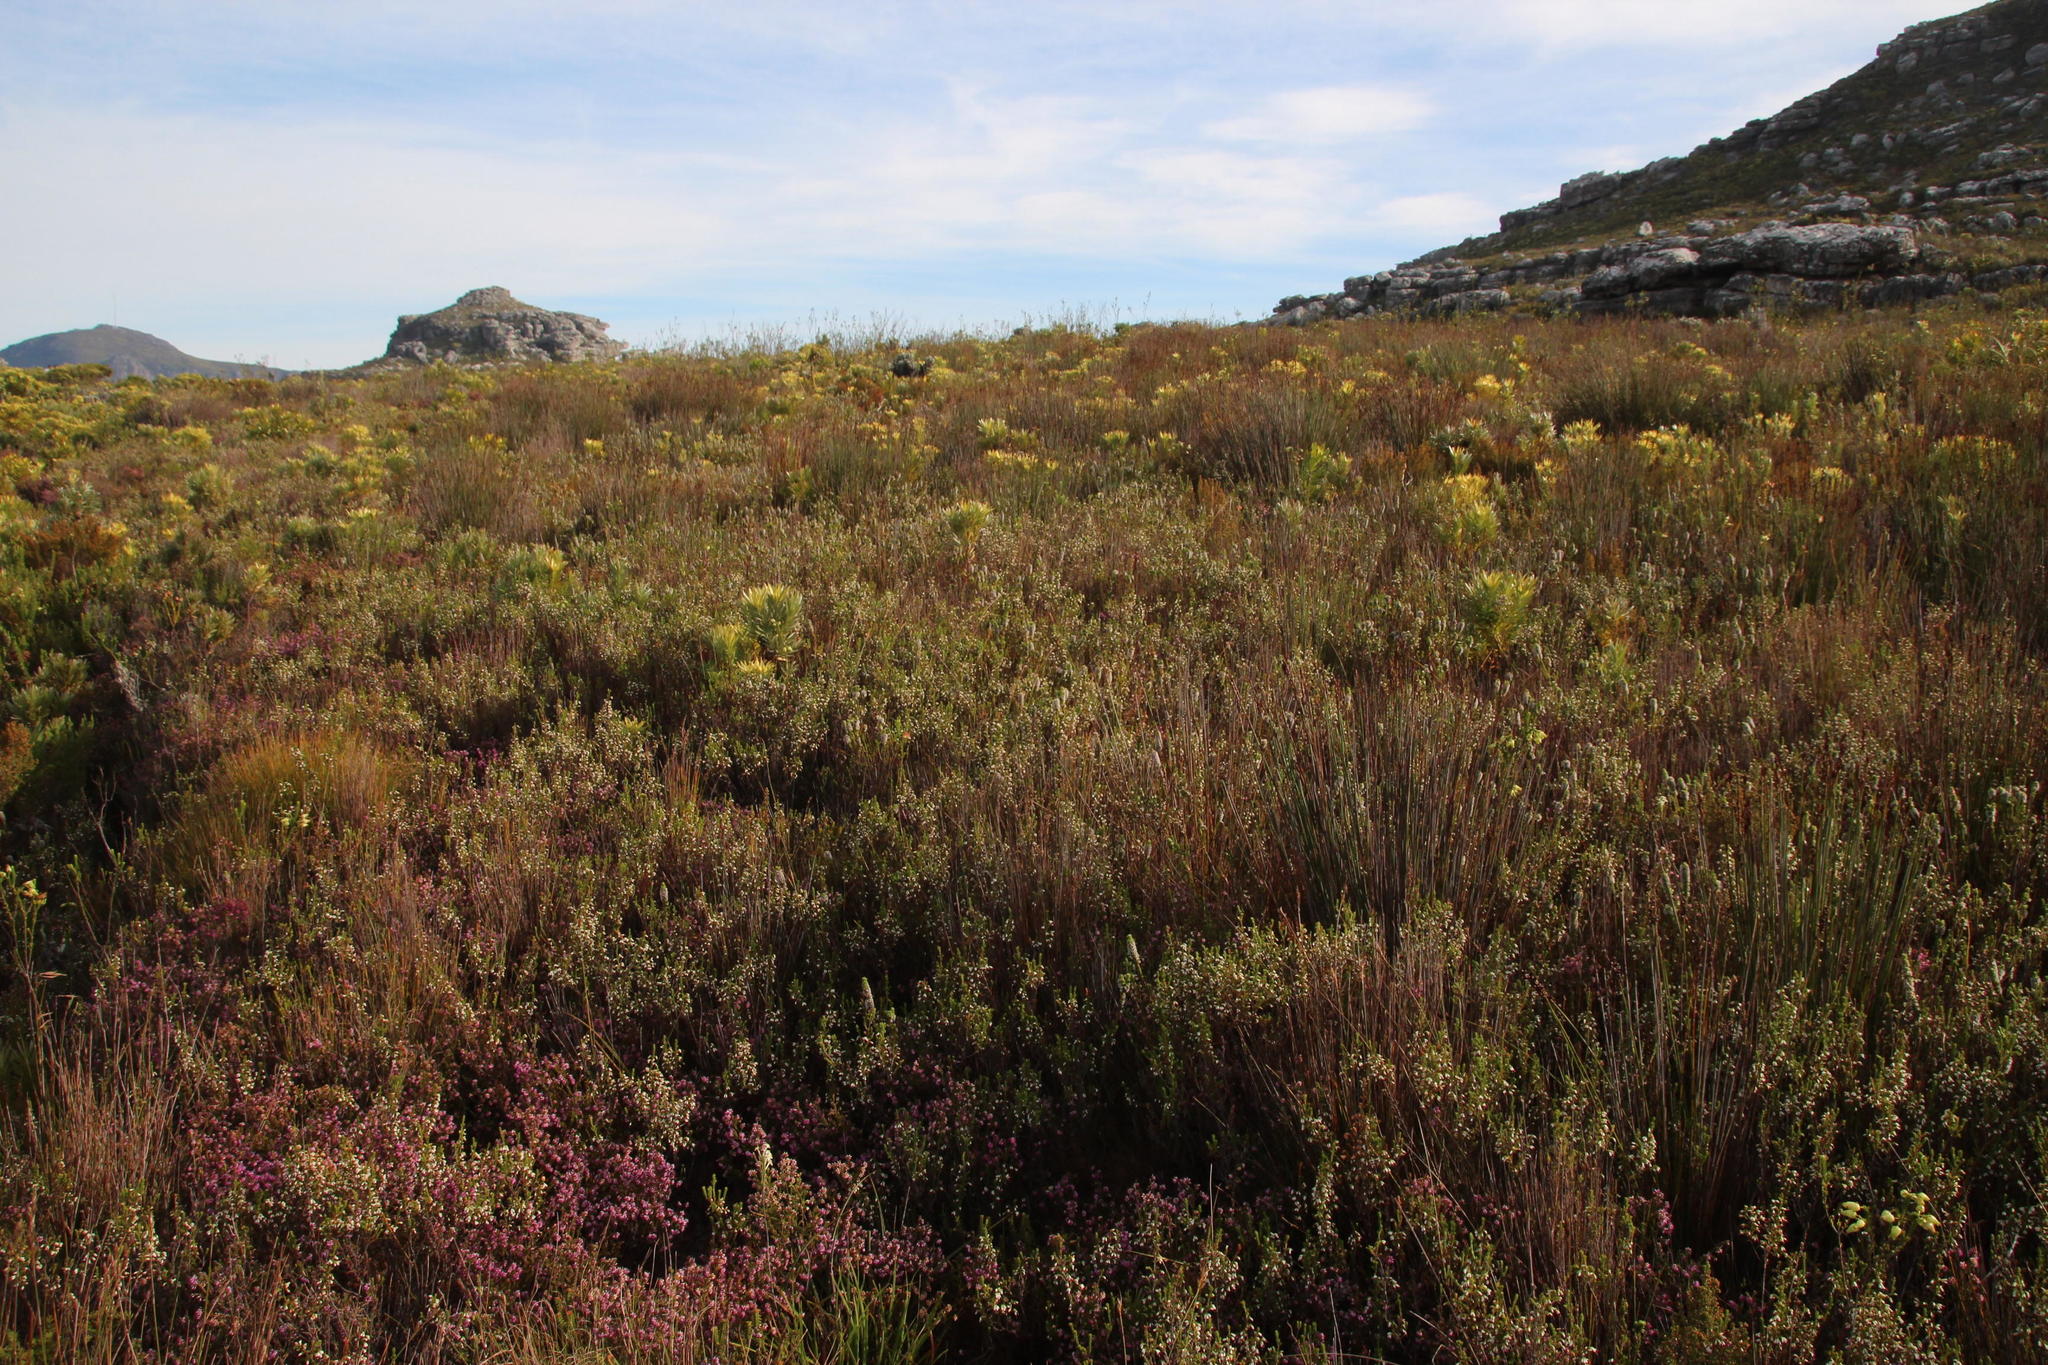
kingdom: Plantae
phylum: Tracheophyta
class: Magnoliopsida
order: Ericales
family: Ericaceae
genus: Erica
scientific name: Erica pyxidiflora
